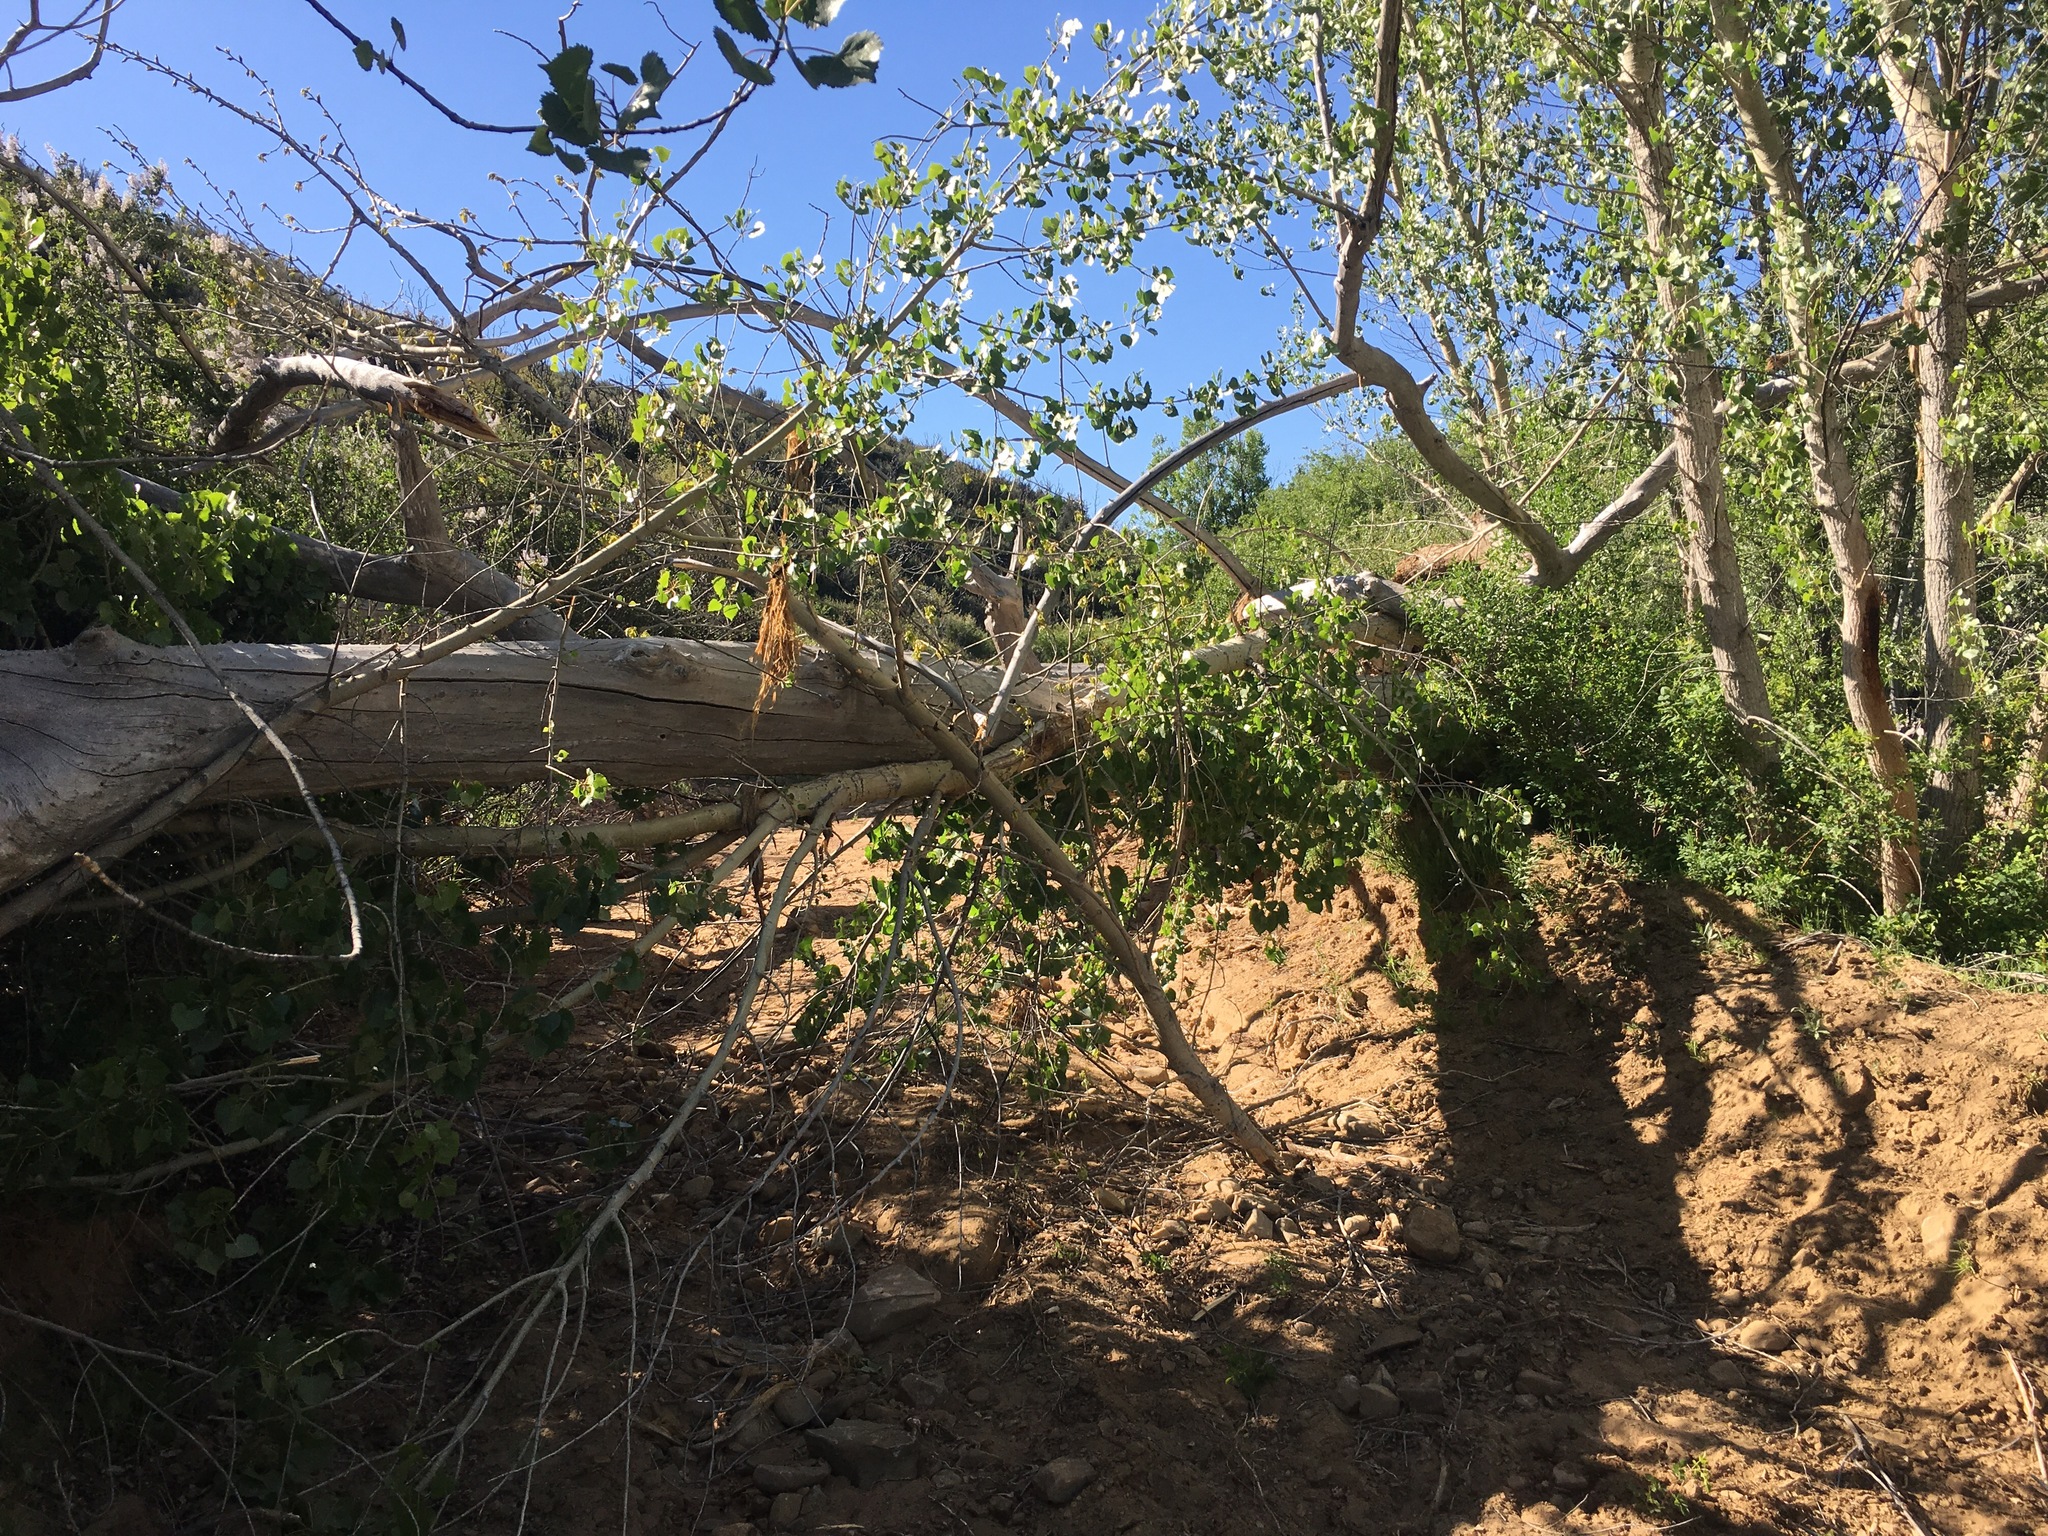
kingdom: Plantae
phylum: Tracheophyta
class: Magnoliopsida
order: Malpighiales
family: Salicaceae
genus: Populus
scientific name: Populus fremontii
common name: Fremont's cottonwood
